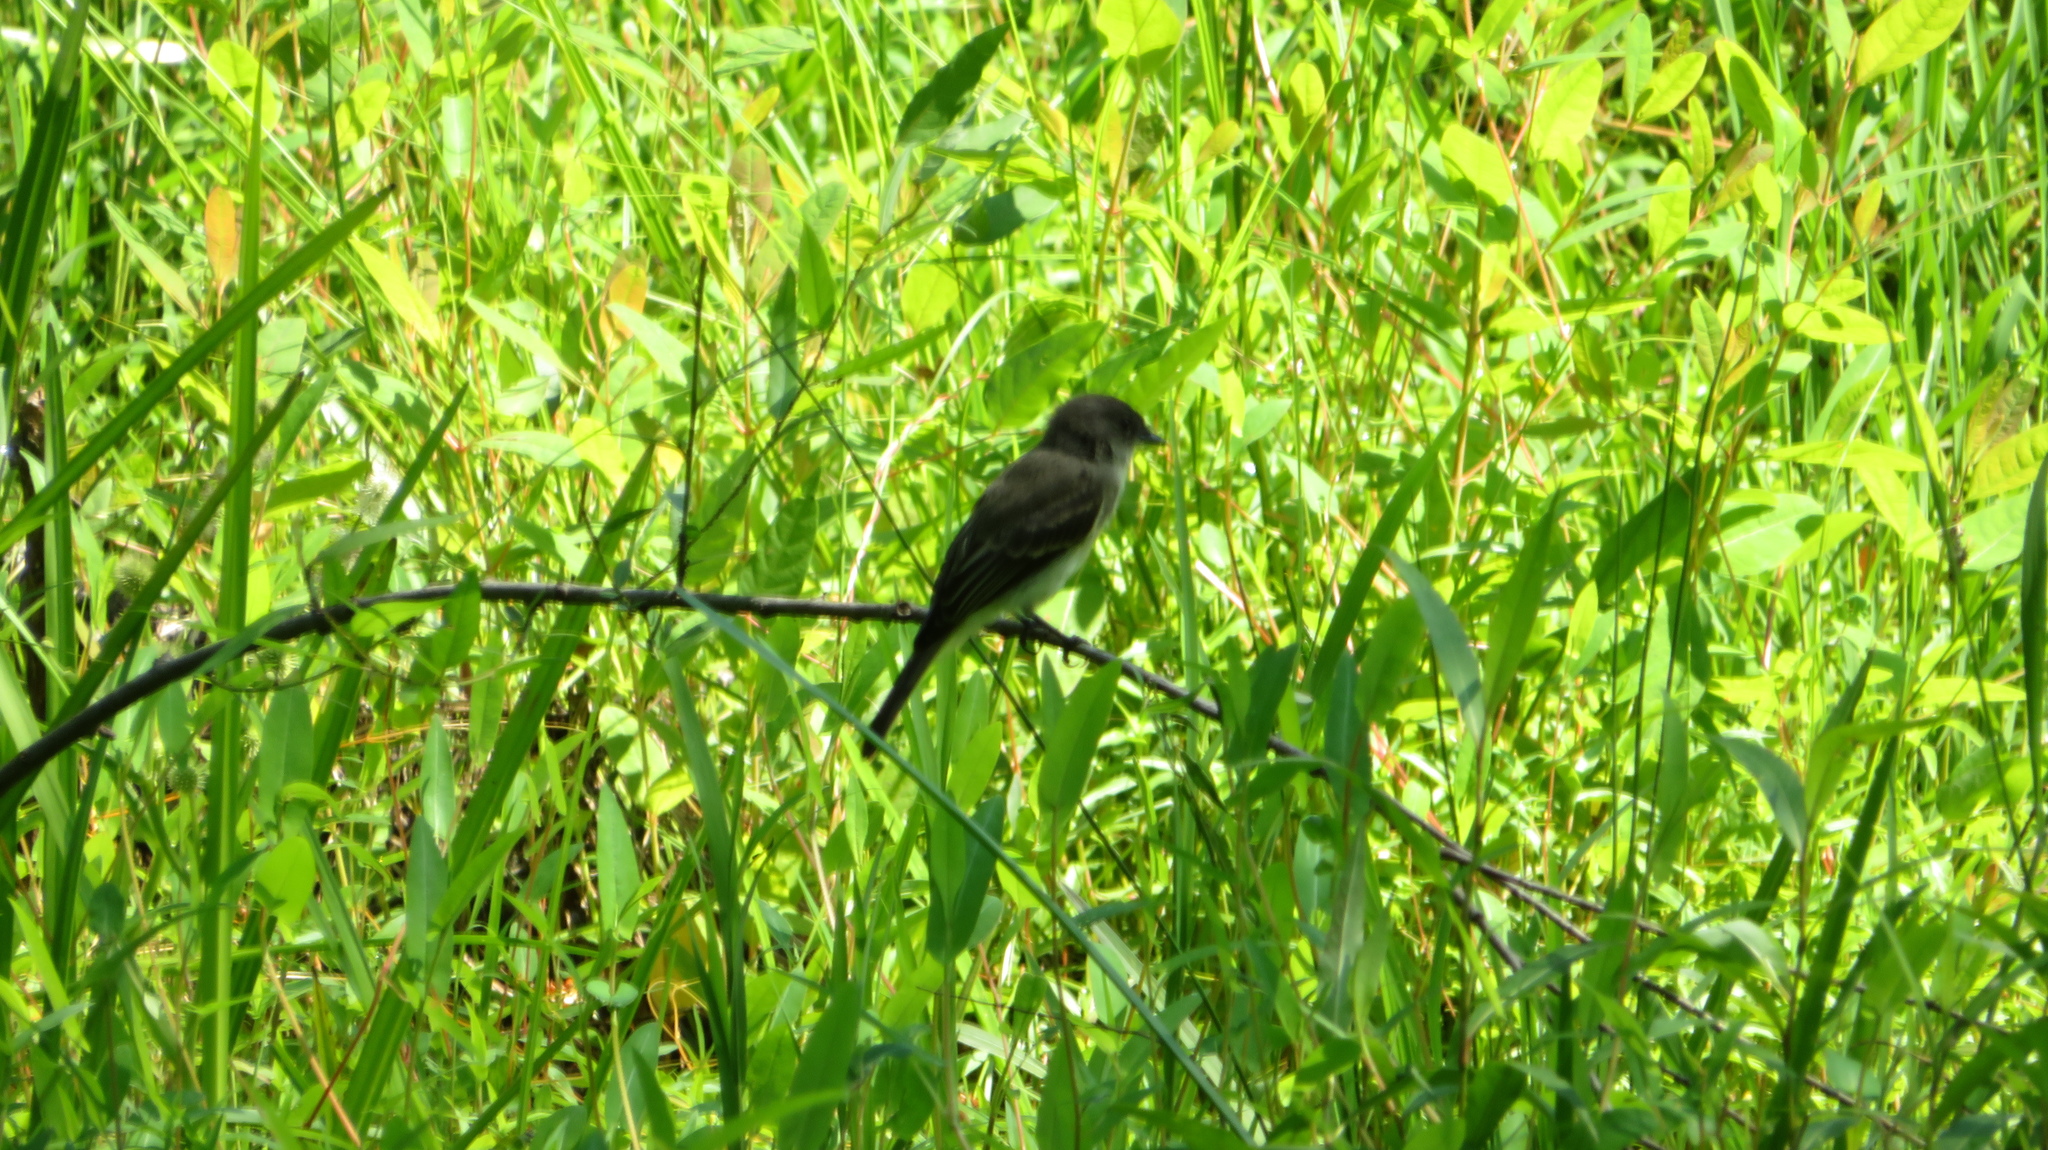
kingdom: Animalia
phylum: Chordata
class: Aves
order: Passeriformes
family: Tyrannidae
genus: Sayornis
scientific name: Sayornis phoebe
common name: Eastern phoebe
